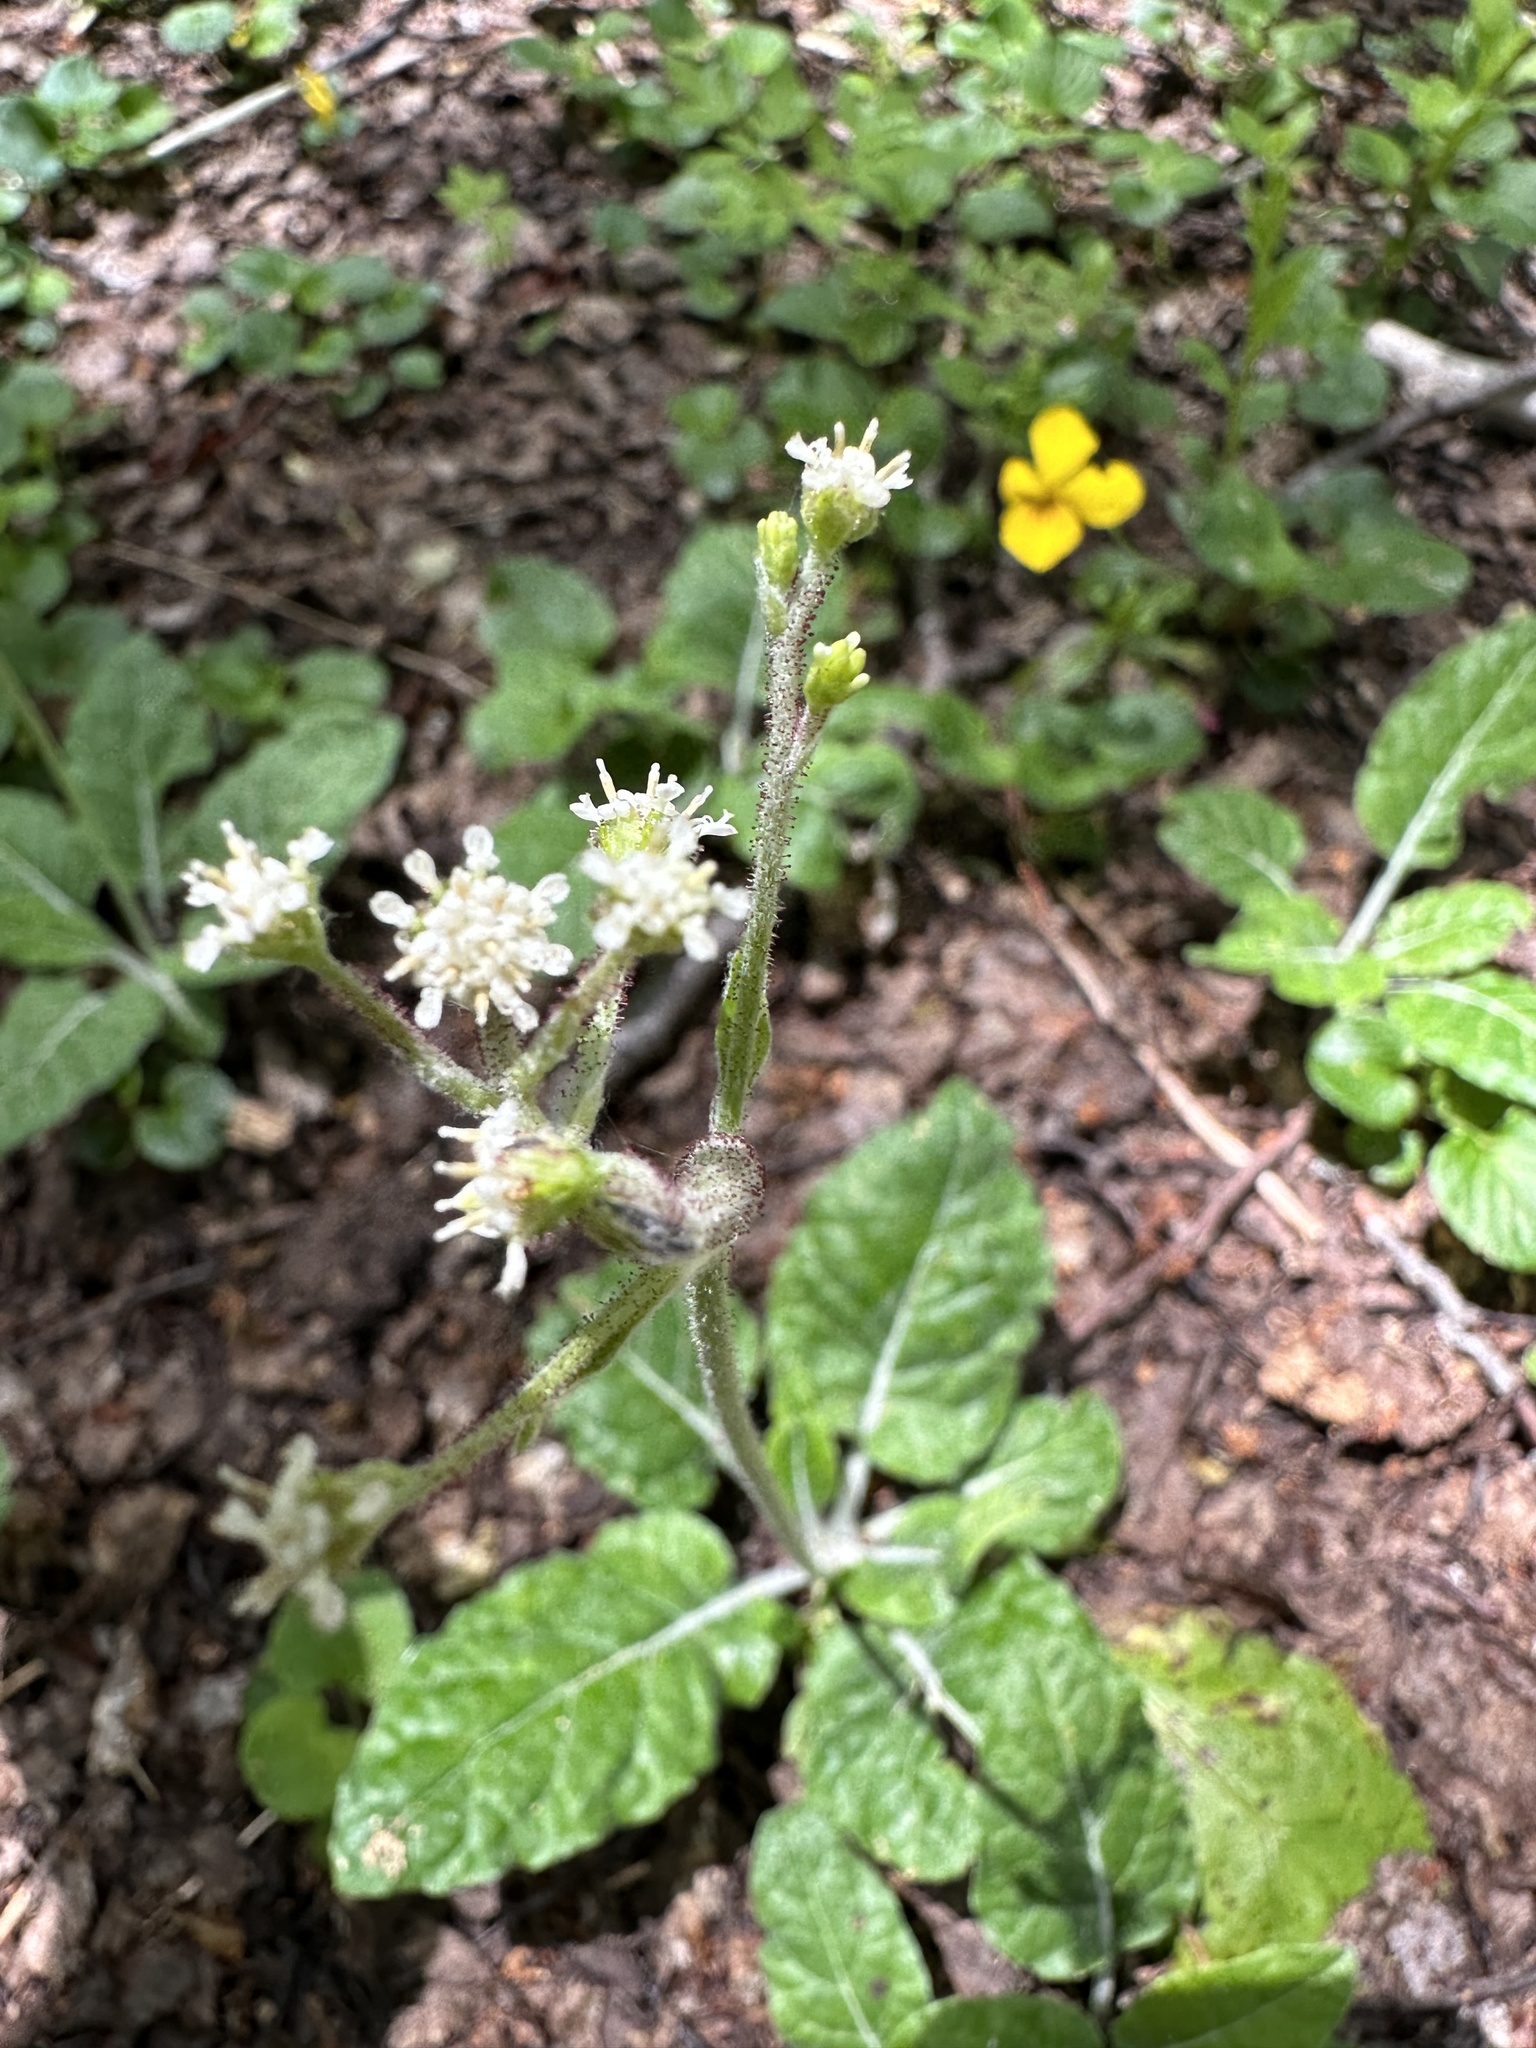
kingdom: Plantae
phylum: Tracheophyta
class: Magnoliopsida
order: Asterales
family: Asteraceae
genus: Adenocaulon
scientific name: Adenocaulon chilense
